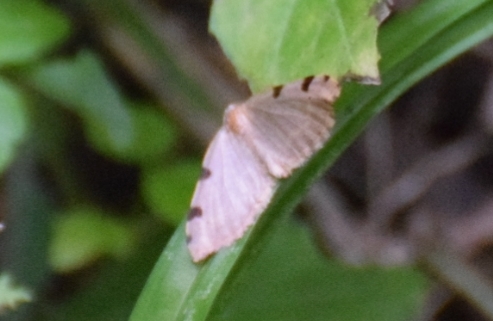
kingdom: Animalia
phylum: Arthropoda
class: Insecta
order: Lepidoptera
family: Geometridae
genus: Heterophleps
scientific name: Heterophleps triguttaria
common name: Three-spotted fillip
